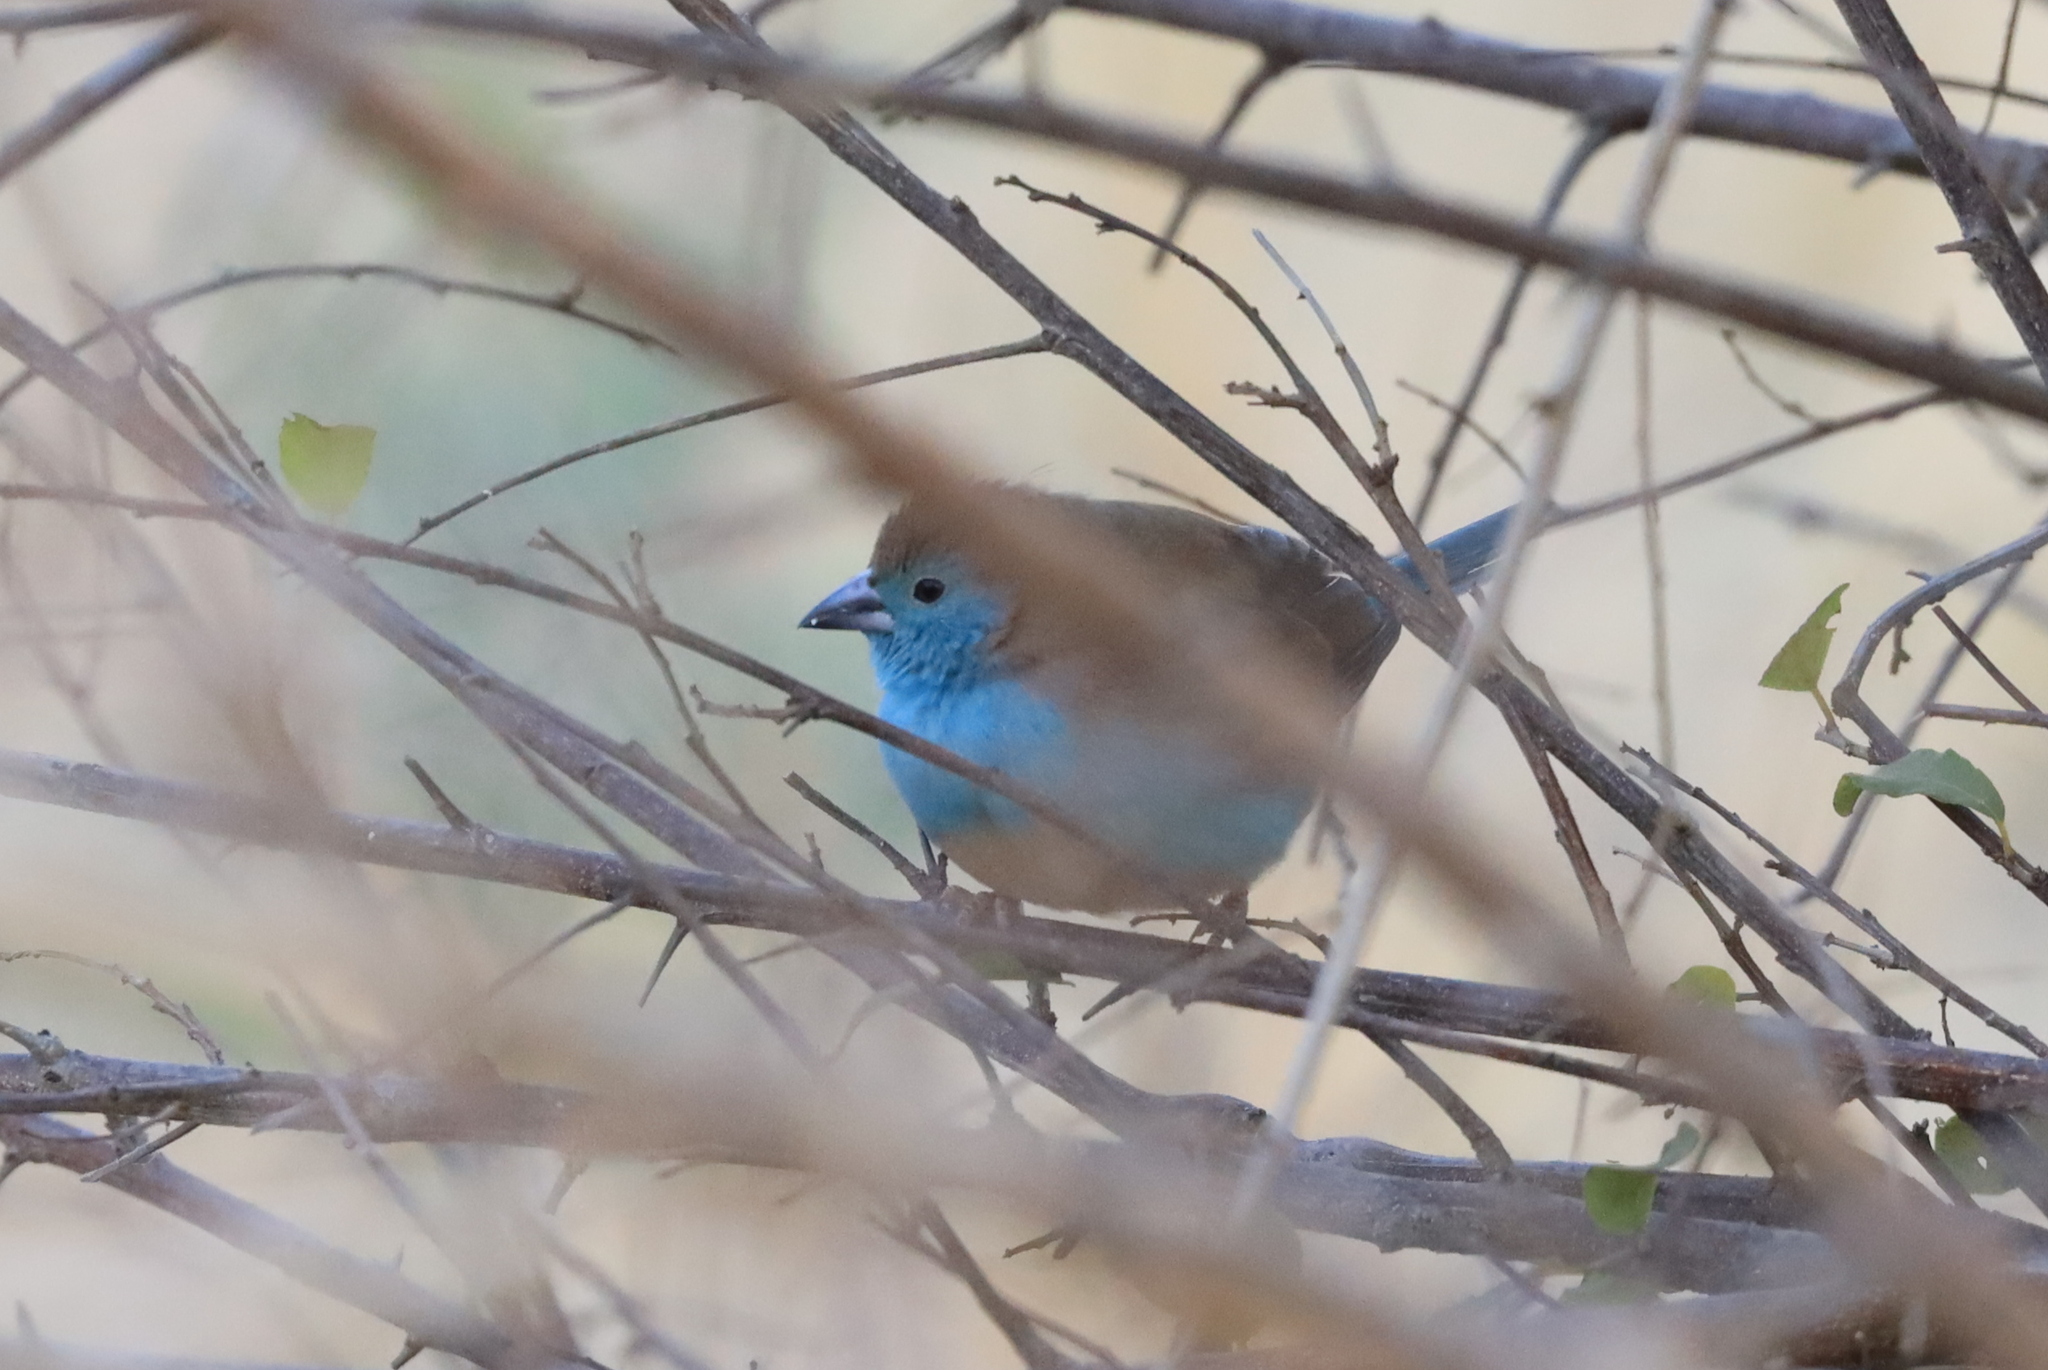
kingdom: Animalia
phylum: Chordata
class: Aves
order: Passeriformes
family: Estrildidae
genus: Uraeginthus
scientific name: Uraeginthus angolensis
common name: Blue waxbill
